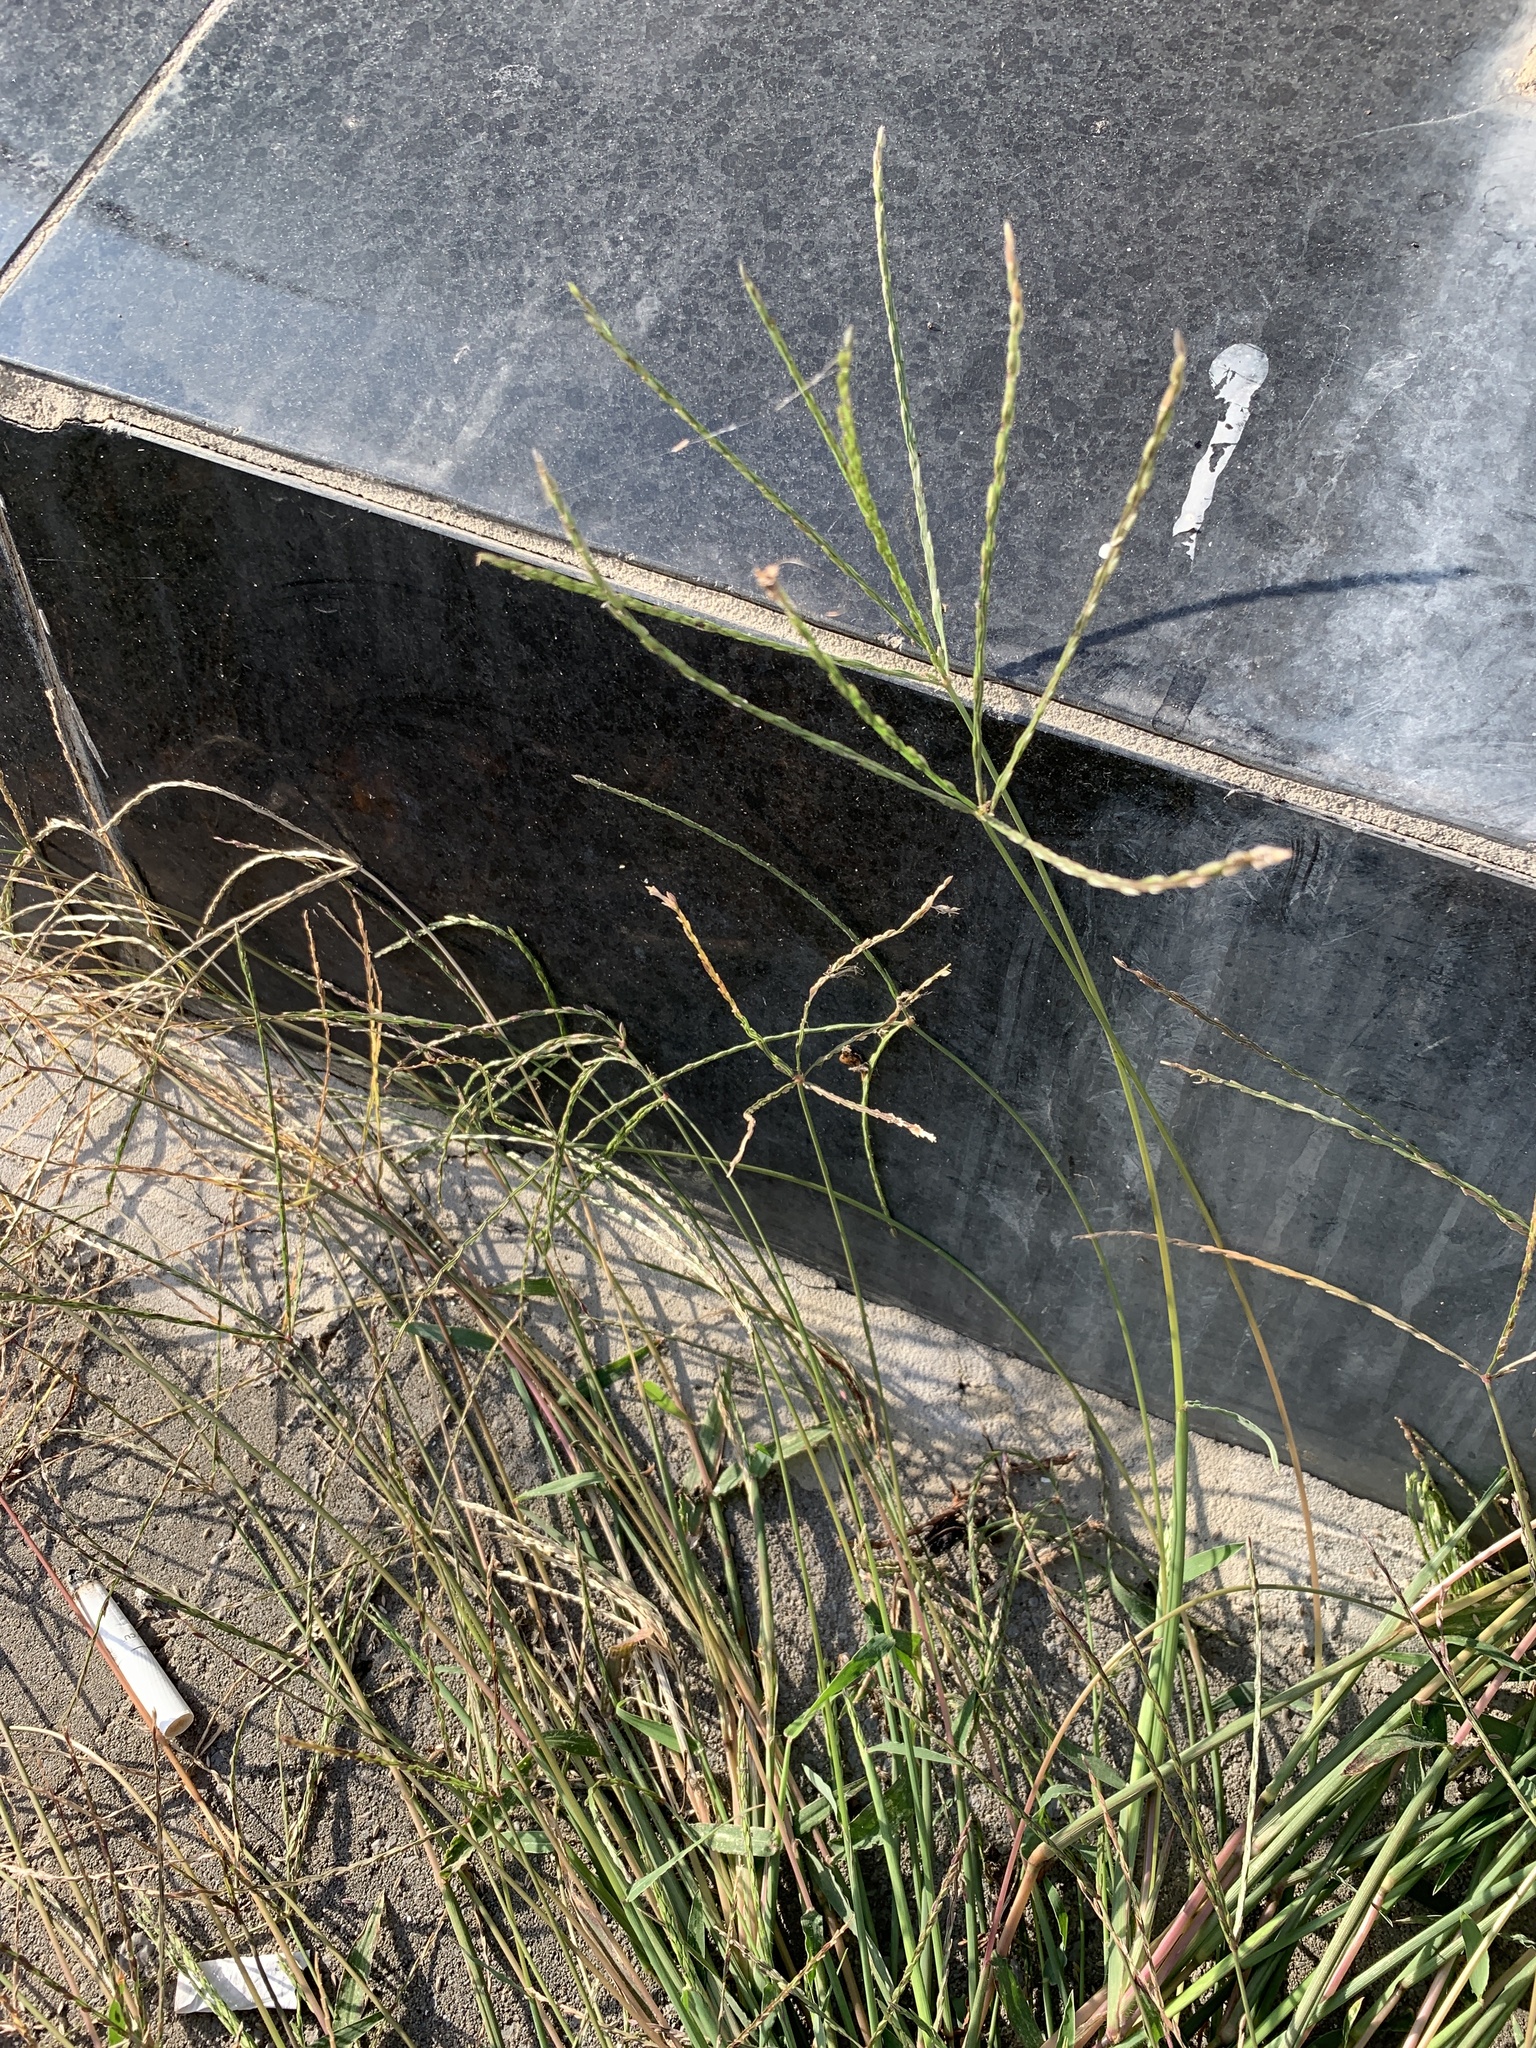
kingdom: Plantae
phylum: Tracheophyta
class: Liliopsida
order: Poales
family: Poaceae
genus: Digitaria
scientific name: Digitaria sanguinalis
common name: Hairy crabgrass
